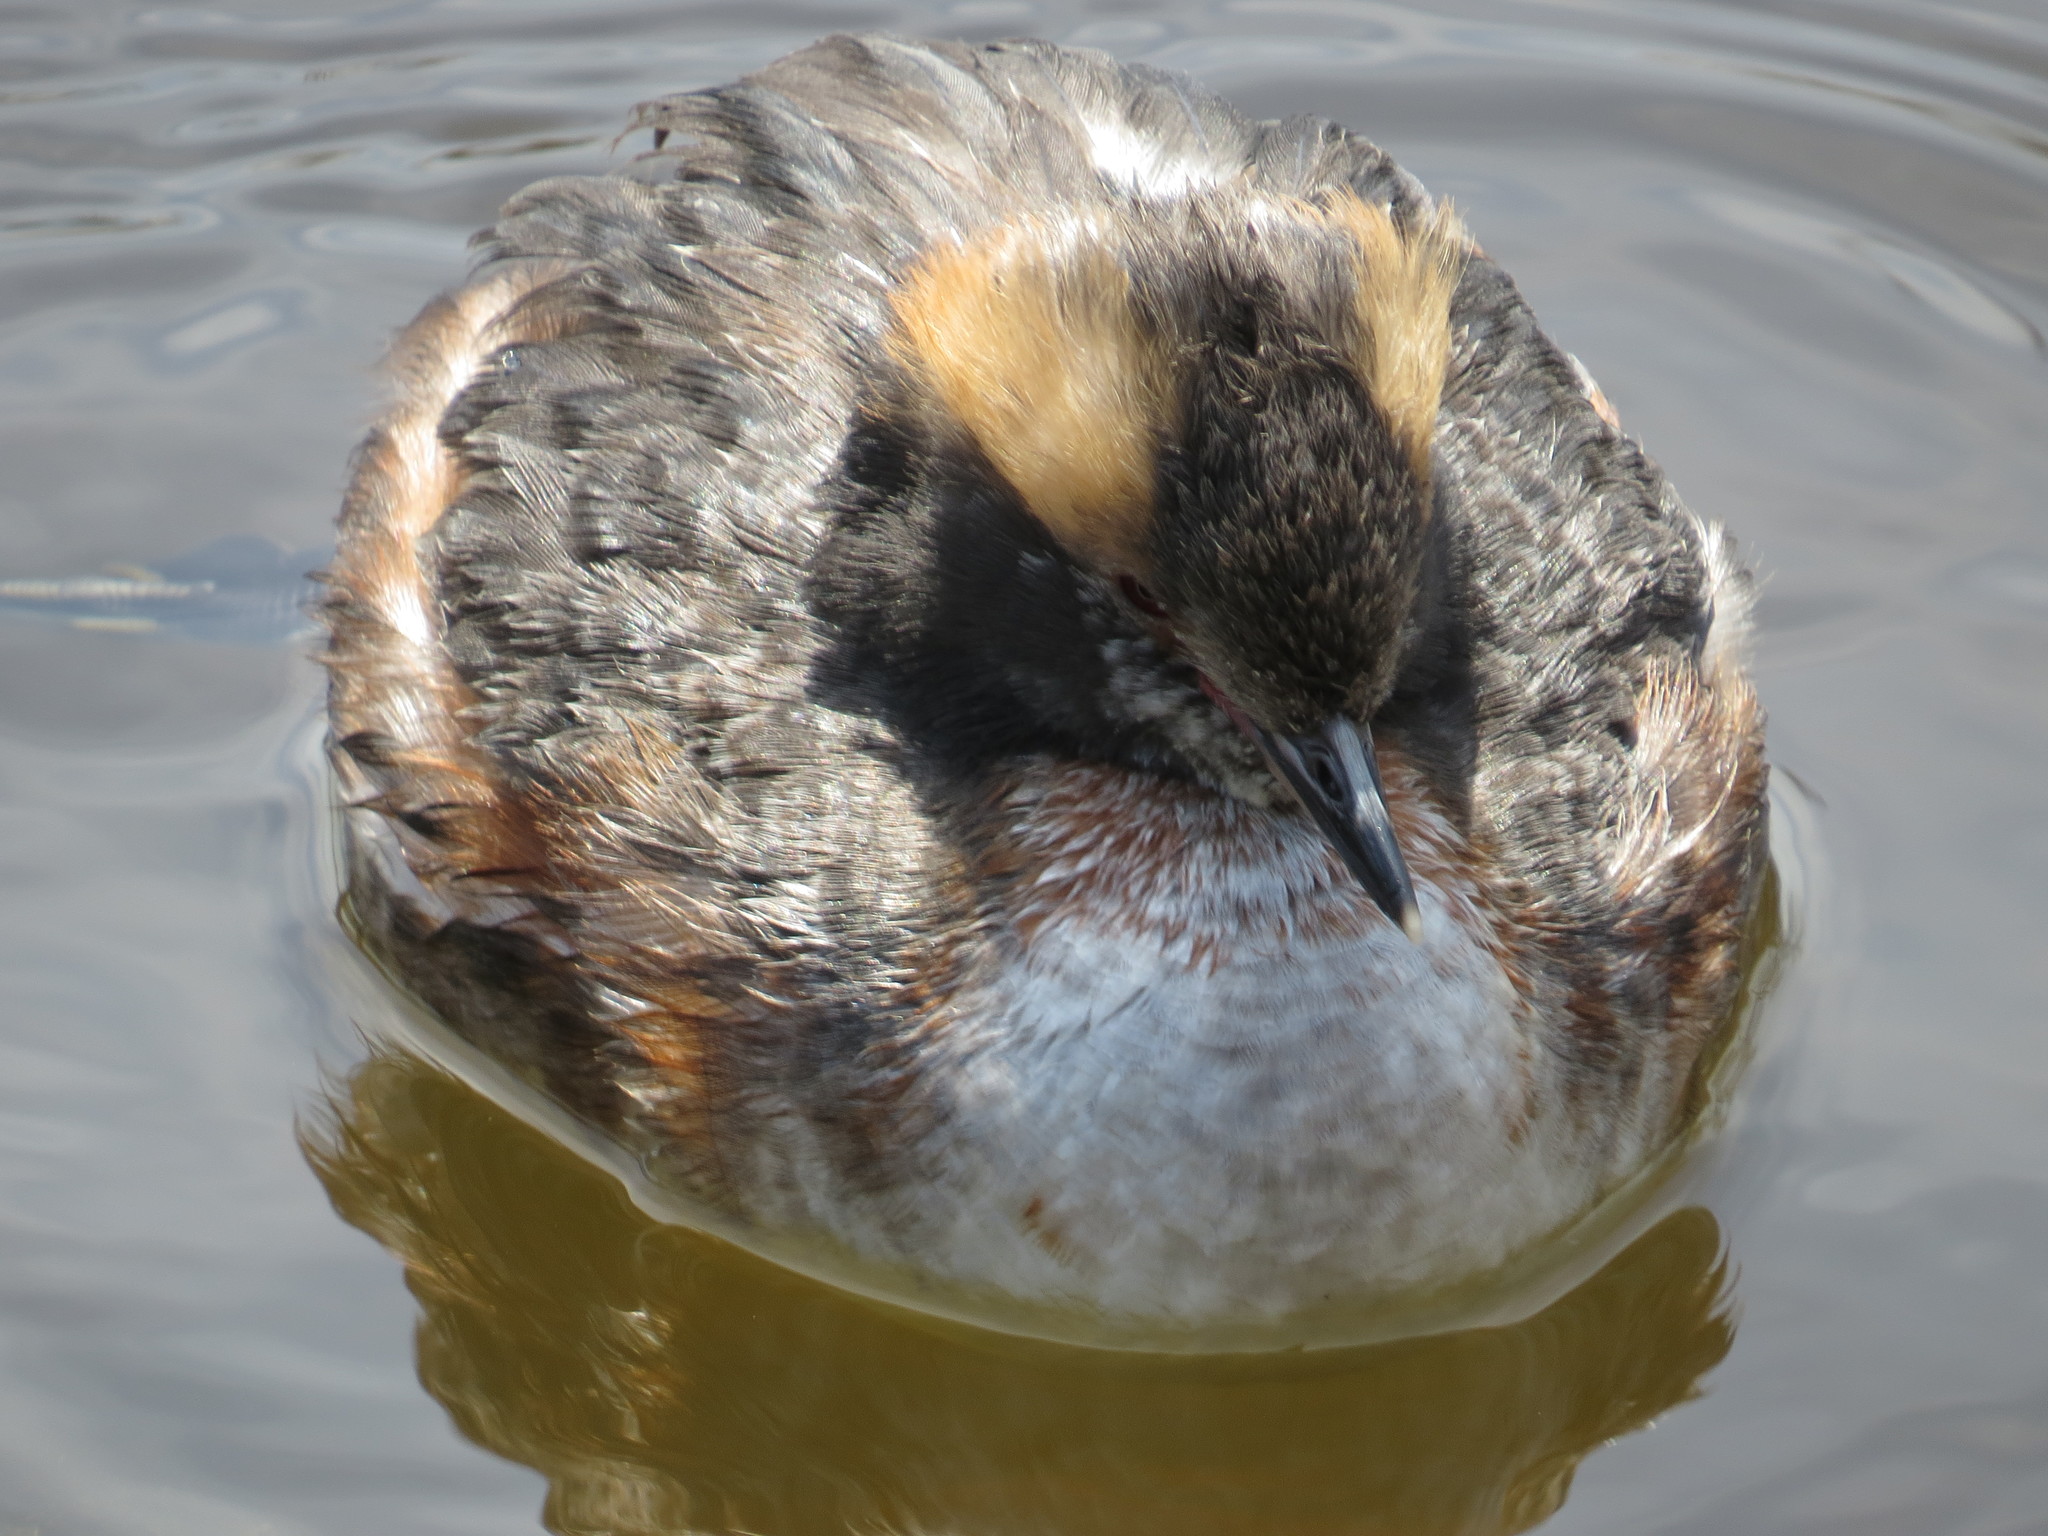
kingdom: Animalia
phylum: Chordata
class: Aves
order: Podicipediformes
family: Podicipedidae
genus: Podiceps
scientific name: Podiceps auritus
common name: Horned grebe
